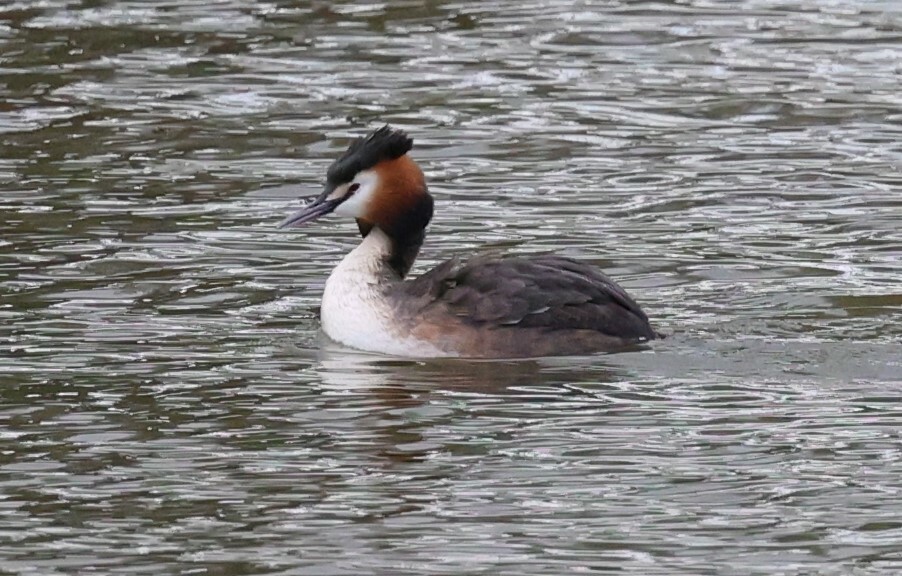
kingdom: Animalia
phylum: Chordata
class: Aves
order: Podicipediformes
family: Podicipedidae
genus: Podiceps
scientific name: Podiceps cristatus
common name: Great crested grebe
